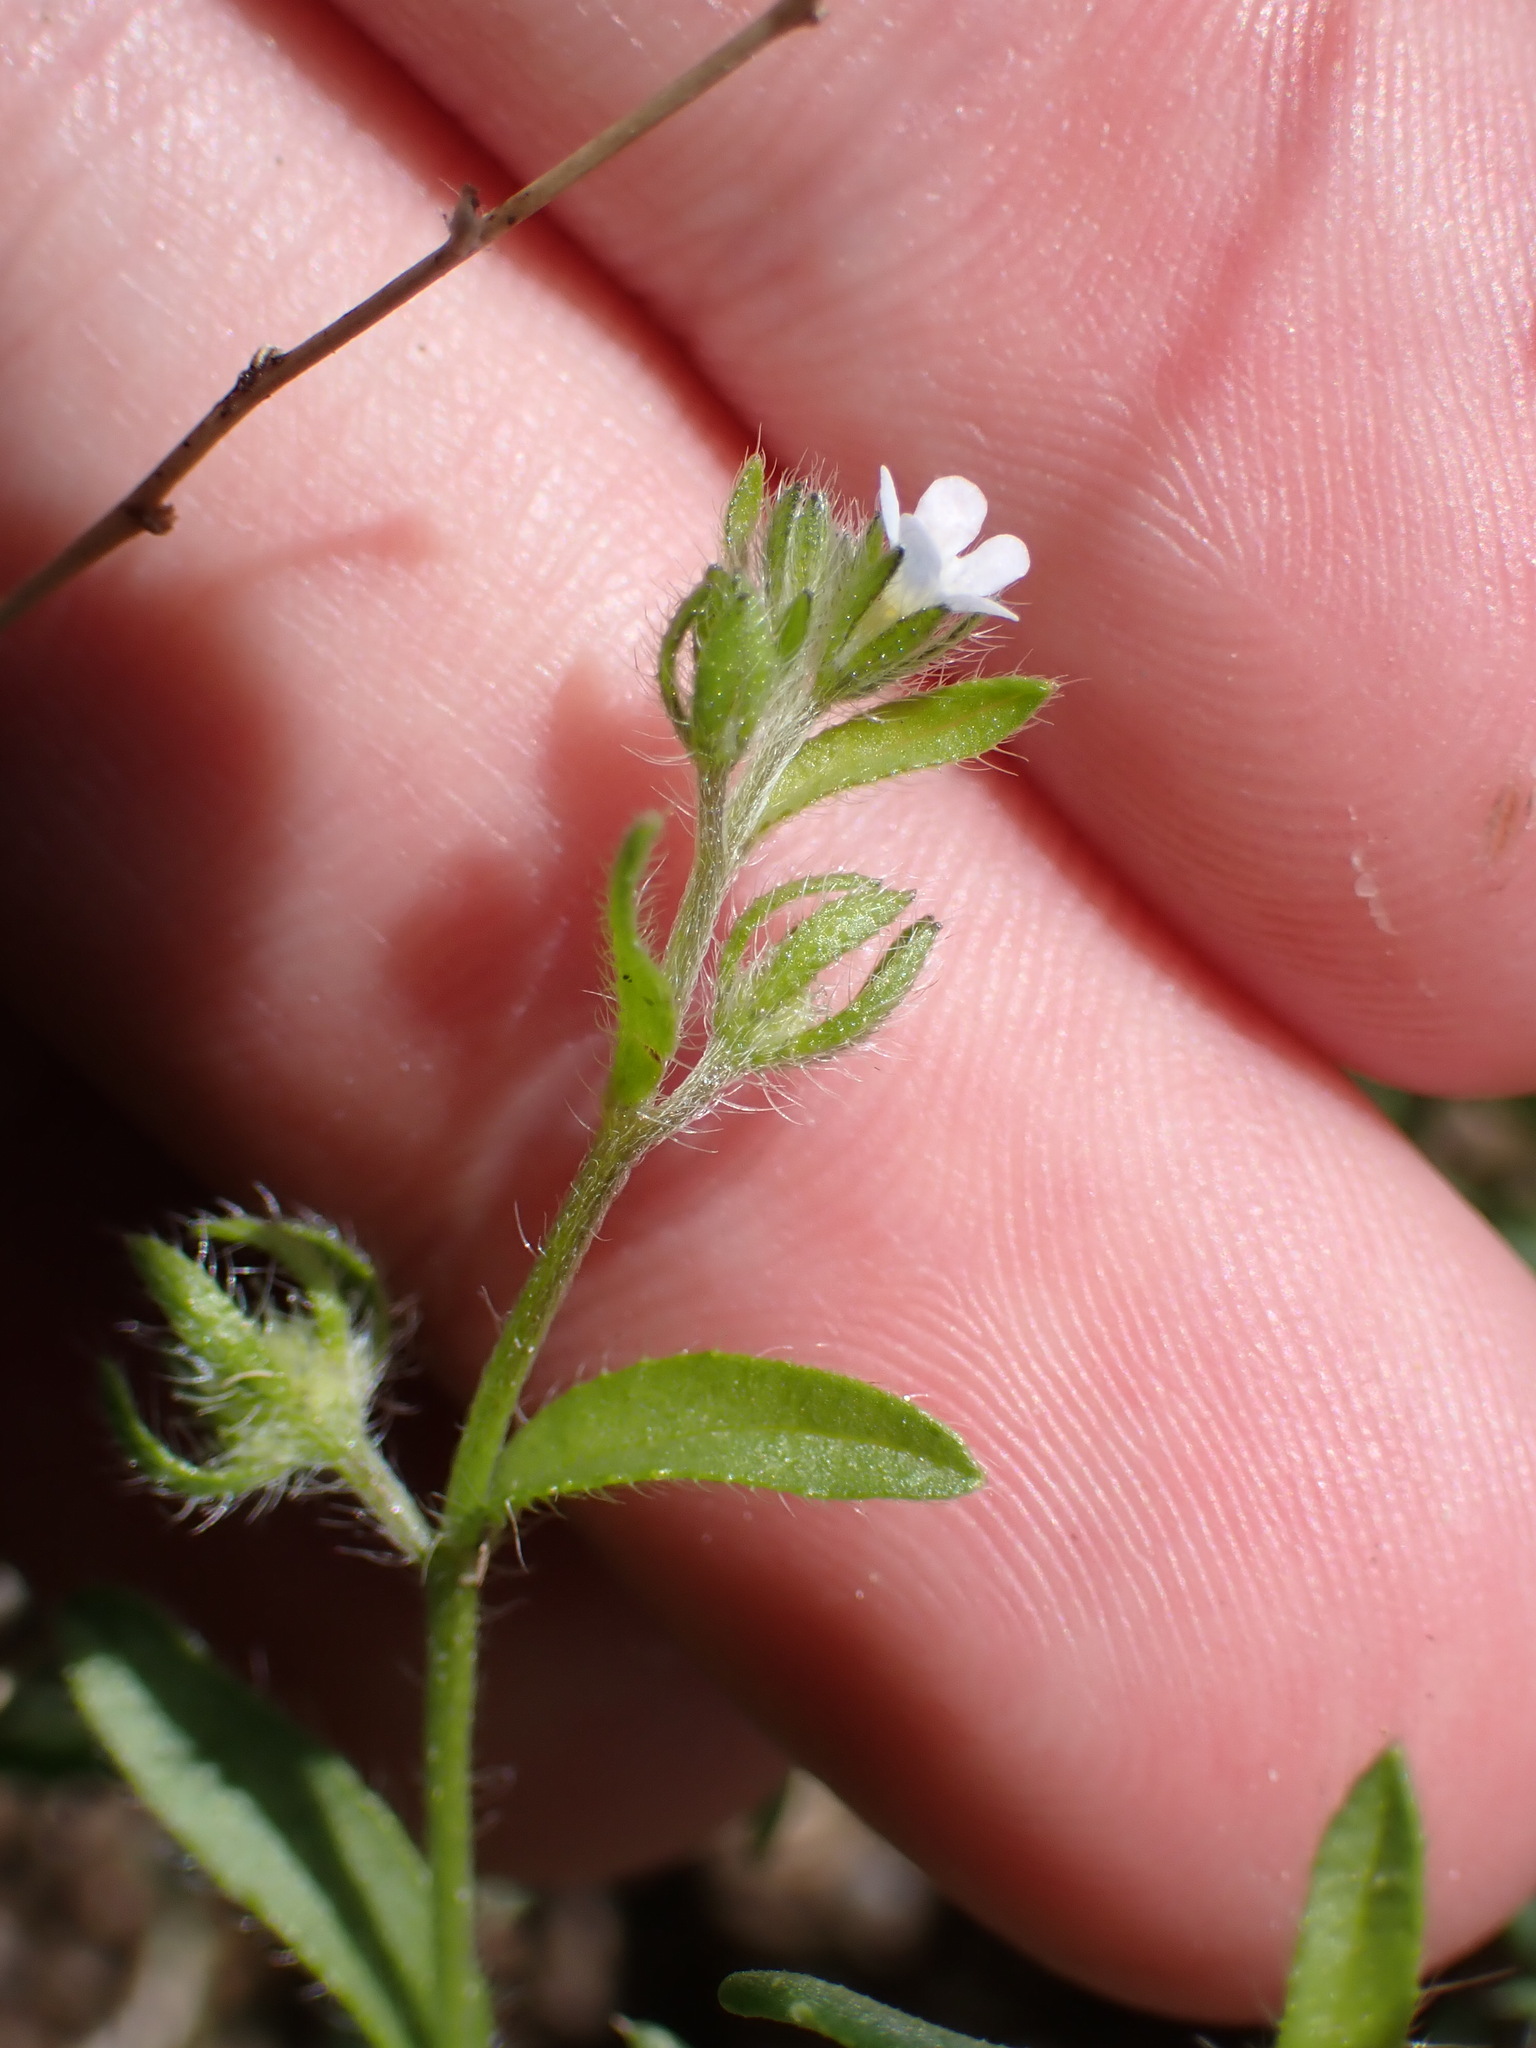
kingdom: Plantae
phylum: Tracheophyta
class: Magnoliopsida
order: Boraginales
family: Boraginaceae
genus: Lappula
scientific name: Lappula occidentalis
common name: Western stickseed
